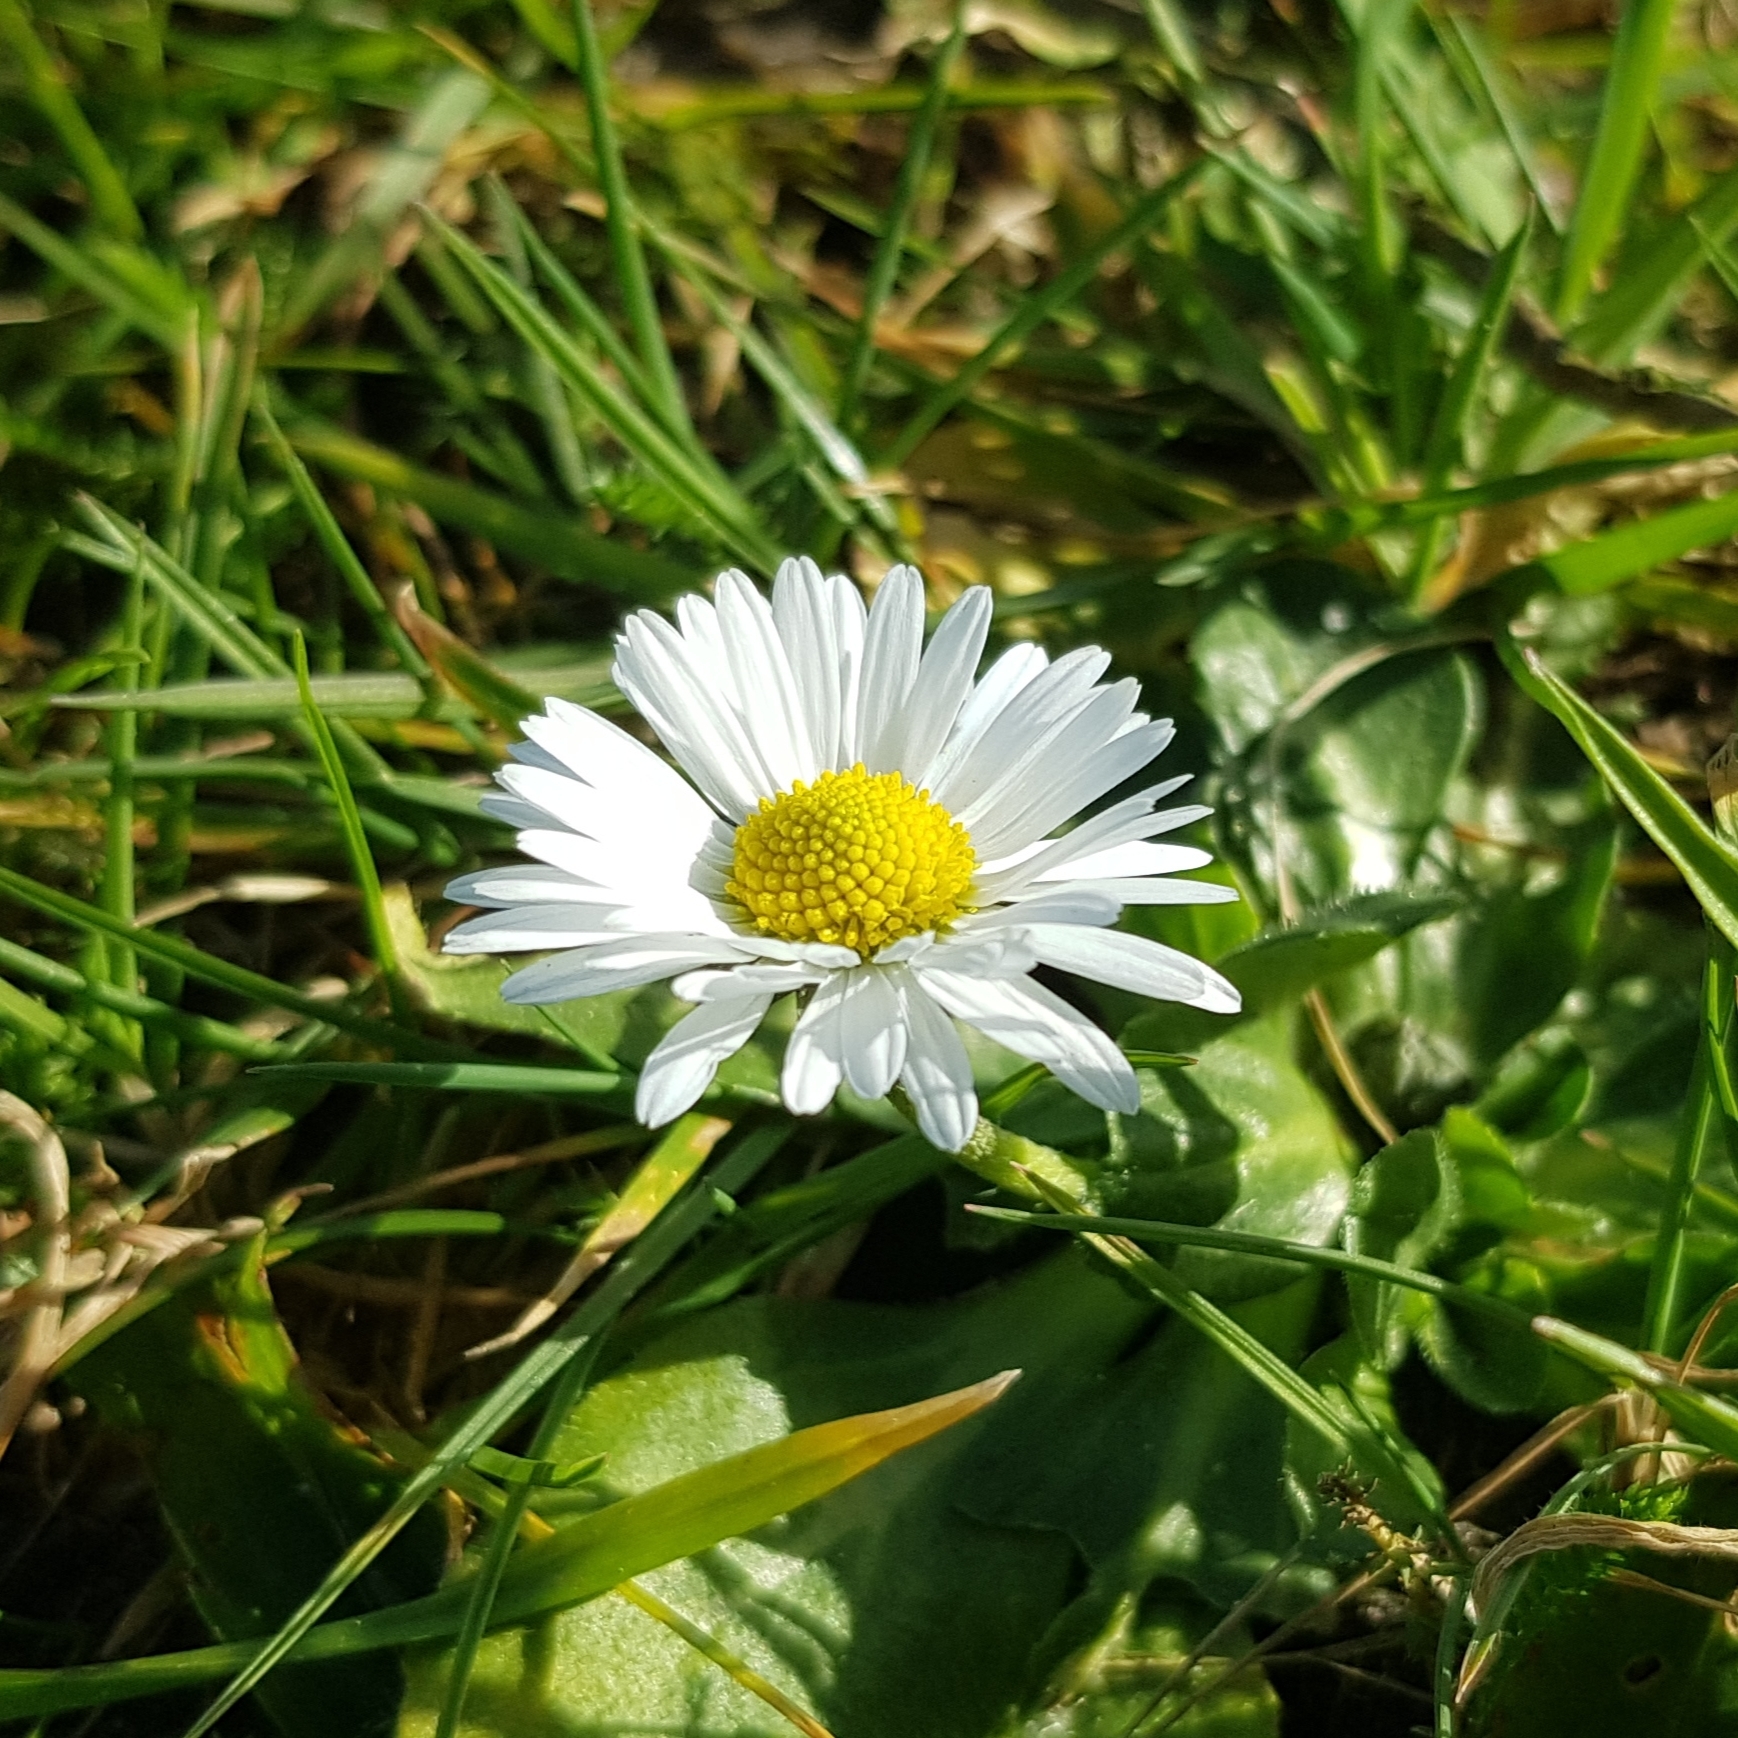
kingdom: Plantae
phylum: Tracheophyta
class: Magnoliopsida
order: Asterales
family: Asteraceae
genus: Bellis
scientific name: Bellis perennis
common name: Lawndaisy
